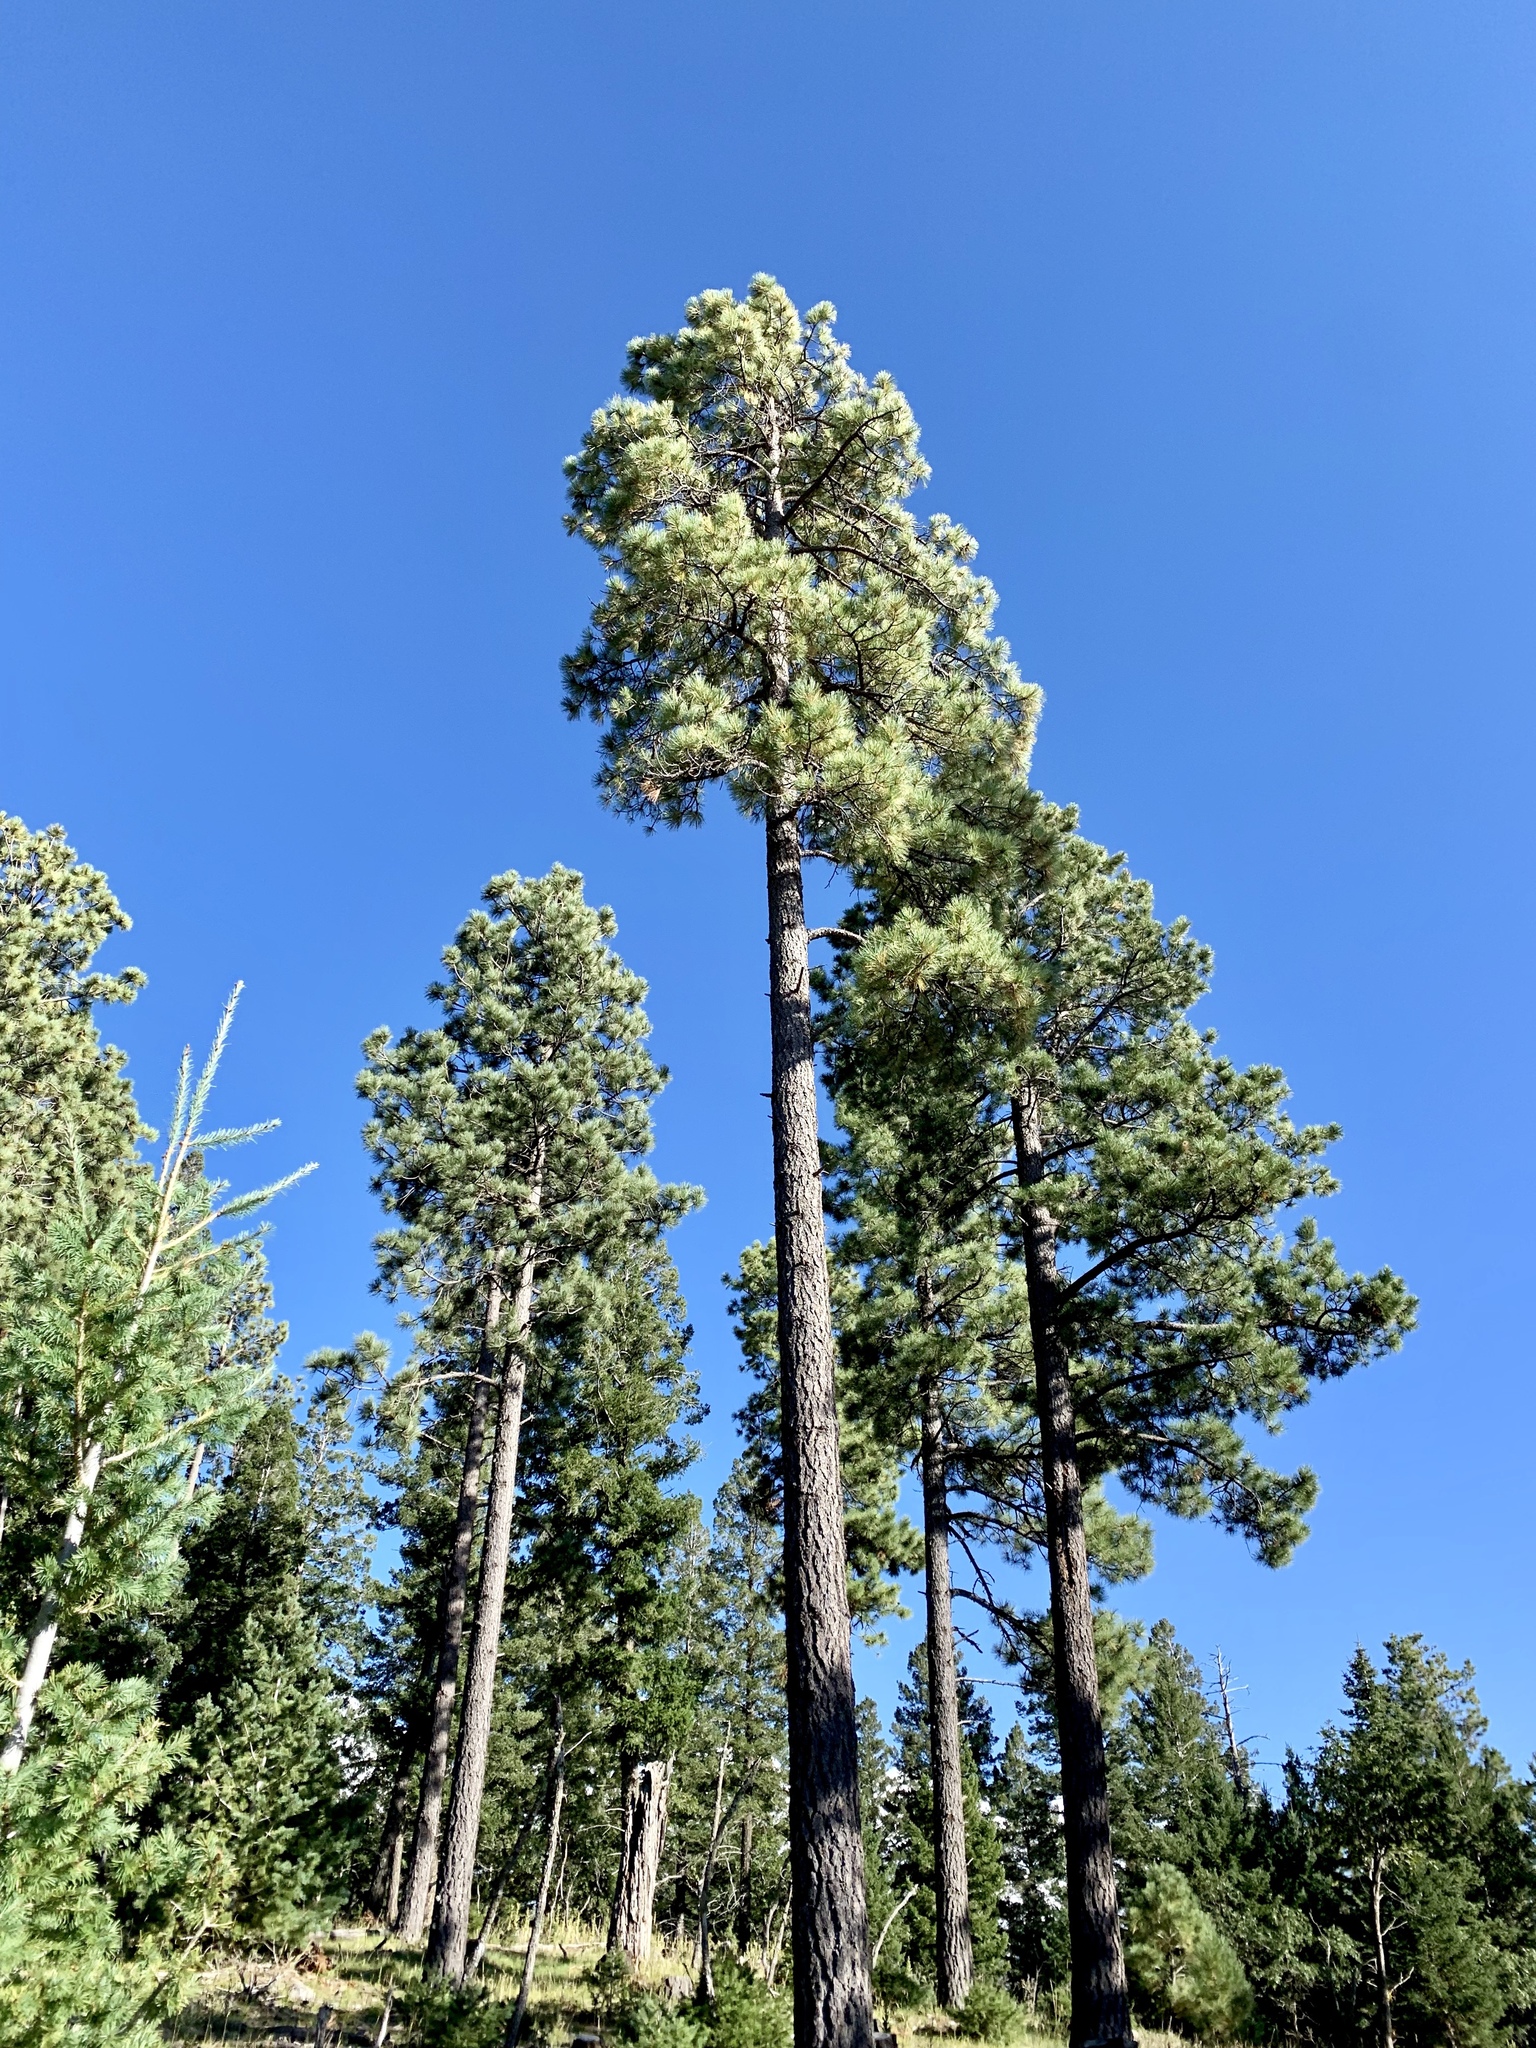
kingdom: Plantae
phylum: Tracheophyta
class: Pinopsida
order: Pinales
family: Pinaceae
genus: Pinus
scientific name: Pinus ponderosa
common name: Western yellow-pine
